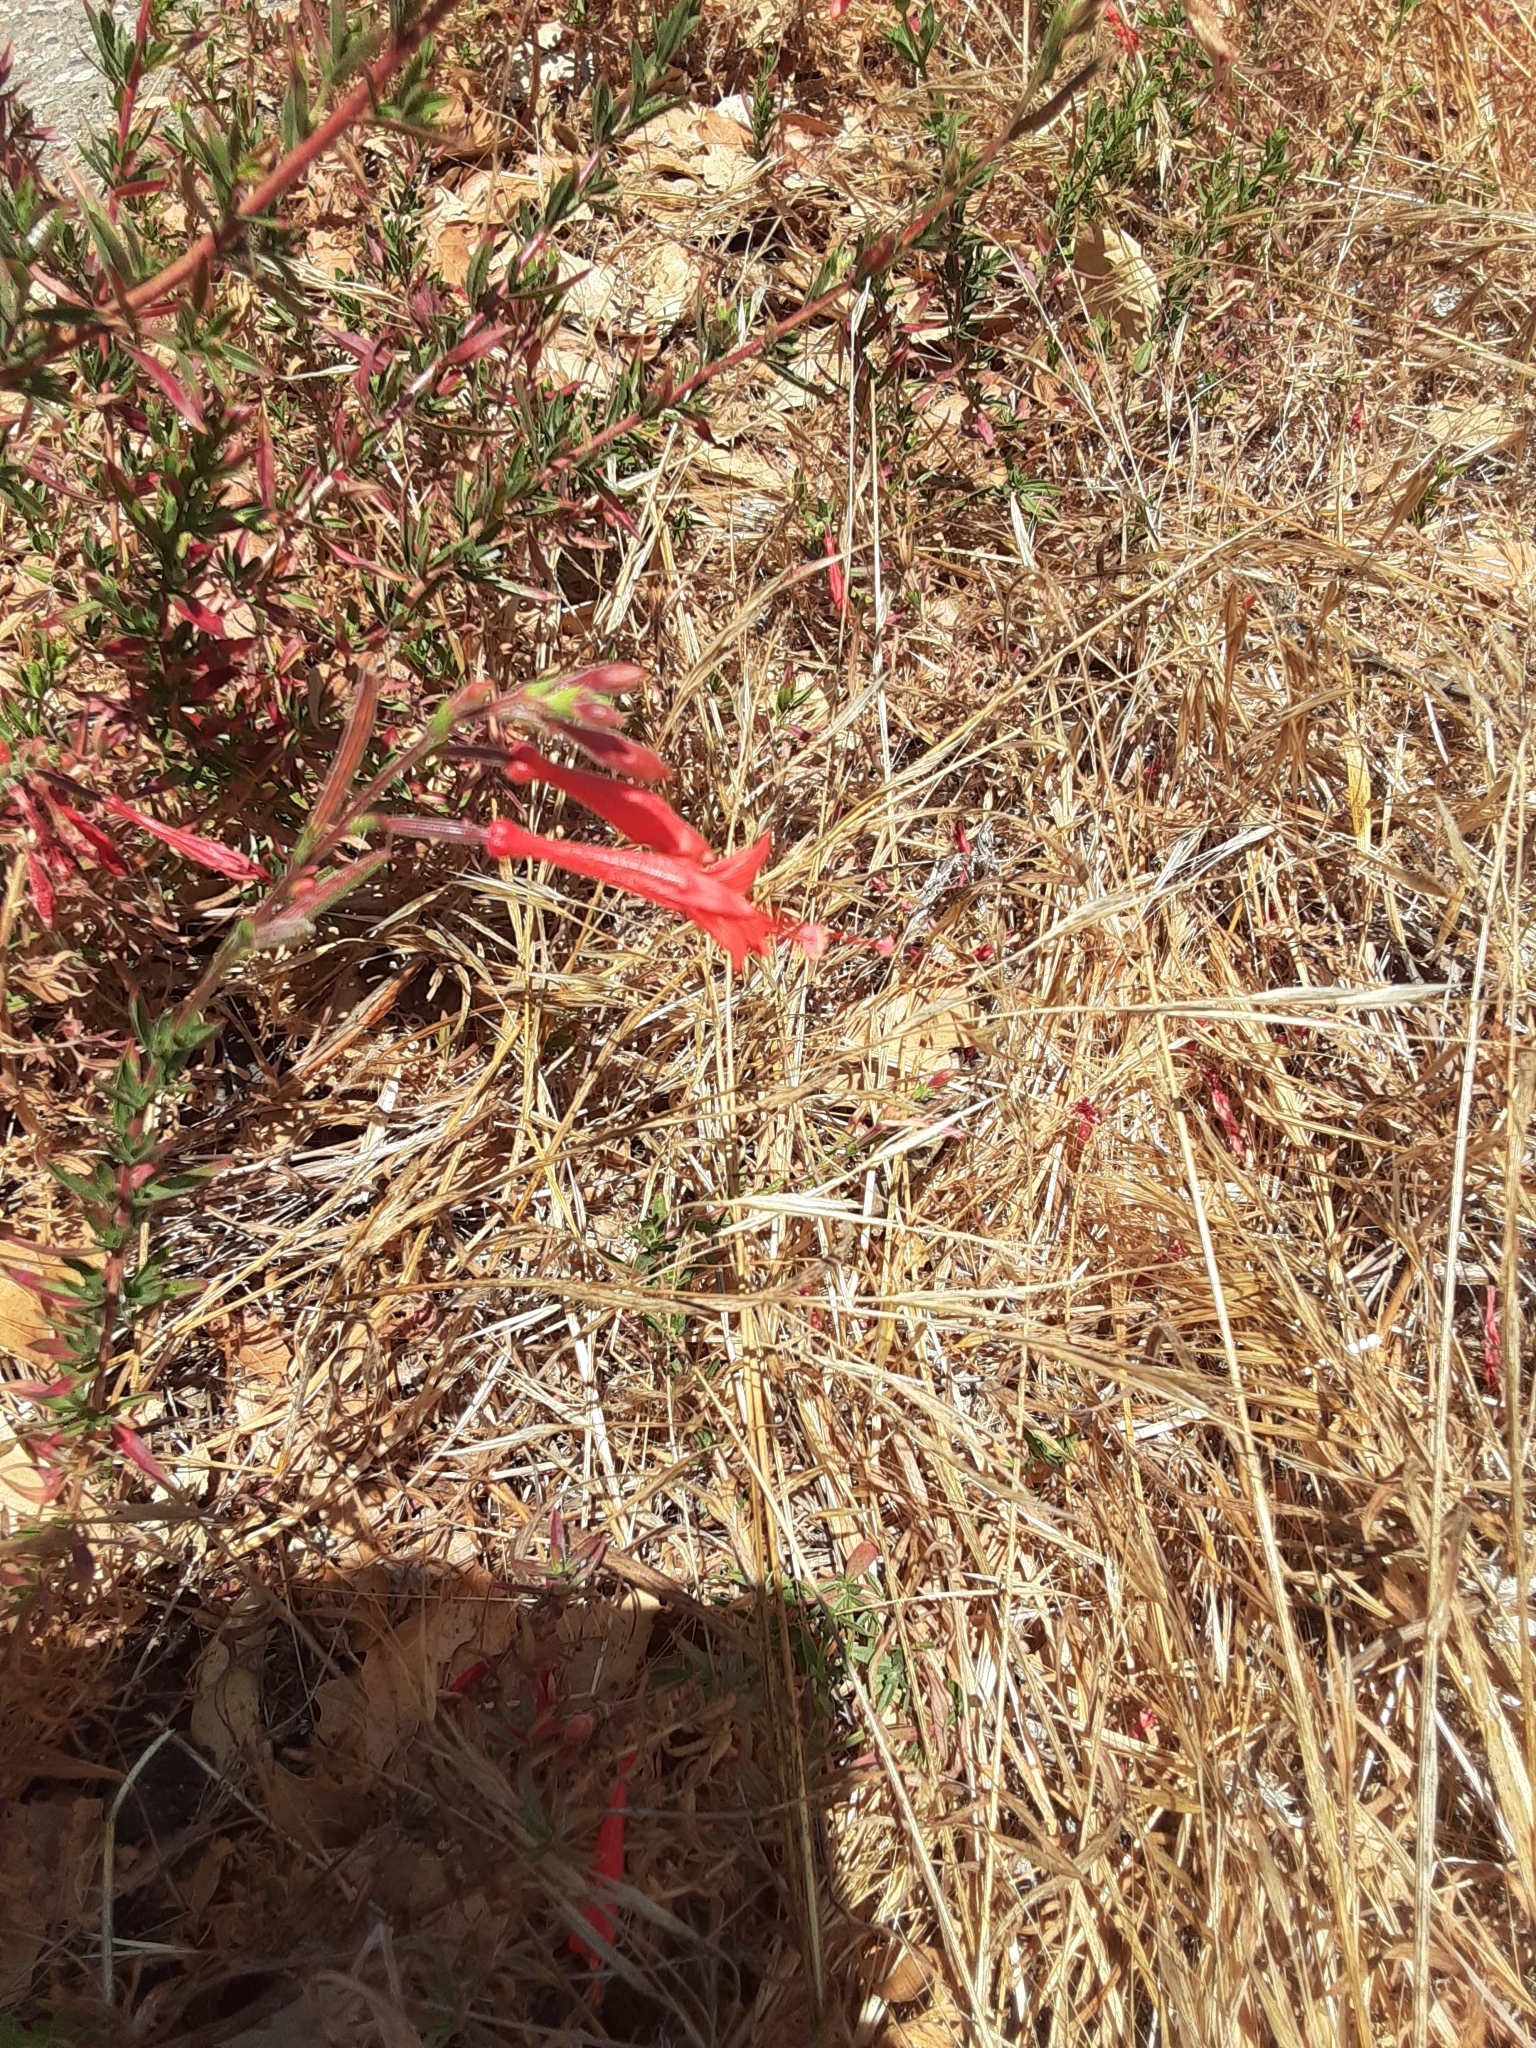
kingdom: Plantae
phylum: Tracheophyta
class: Magnoliopsida
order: Myrtales
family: Onagraceae
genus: Epilobium
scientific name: Epilobium canum
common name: California-fuchsia
